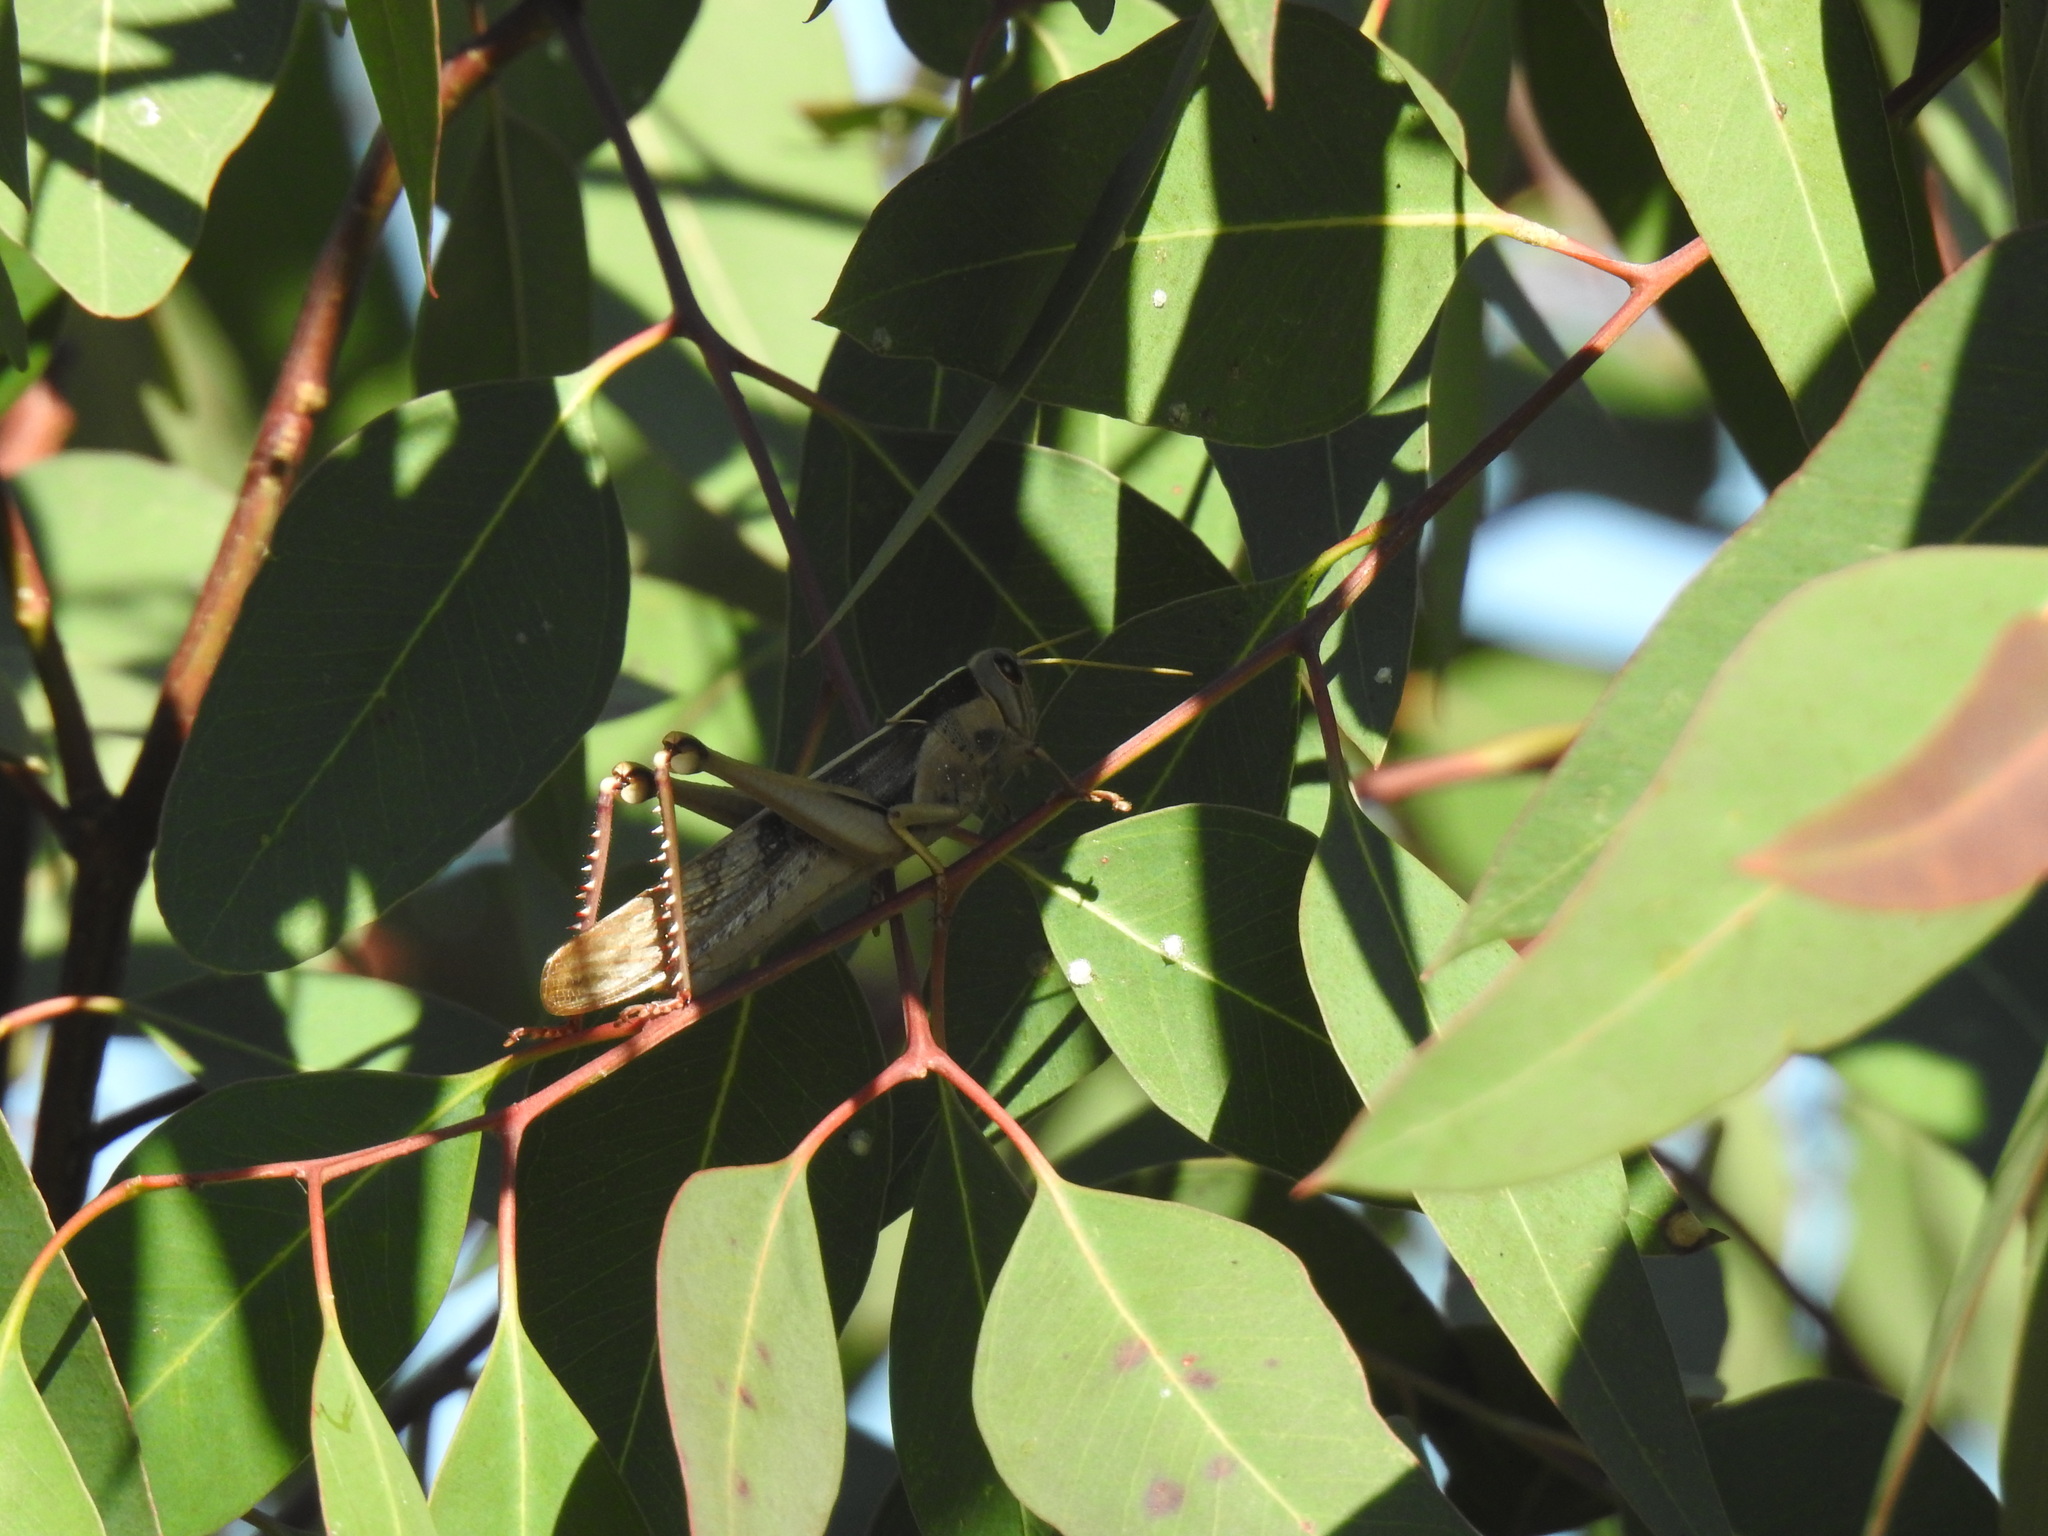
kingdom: Animalia
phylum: Arthropoda
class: Insecta
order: Orthoptera
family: Acrididae
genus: Acanthacris
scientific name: Acanthacris ruficornis
